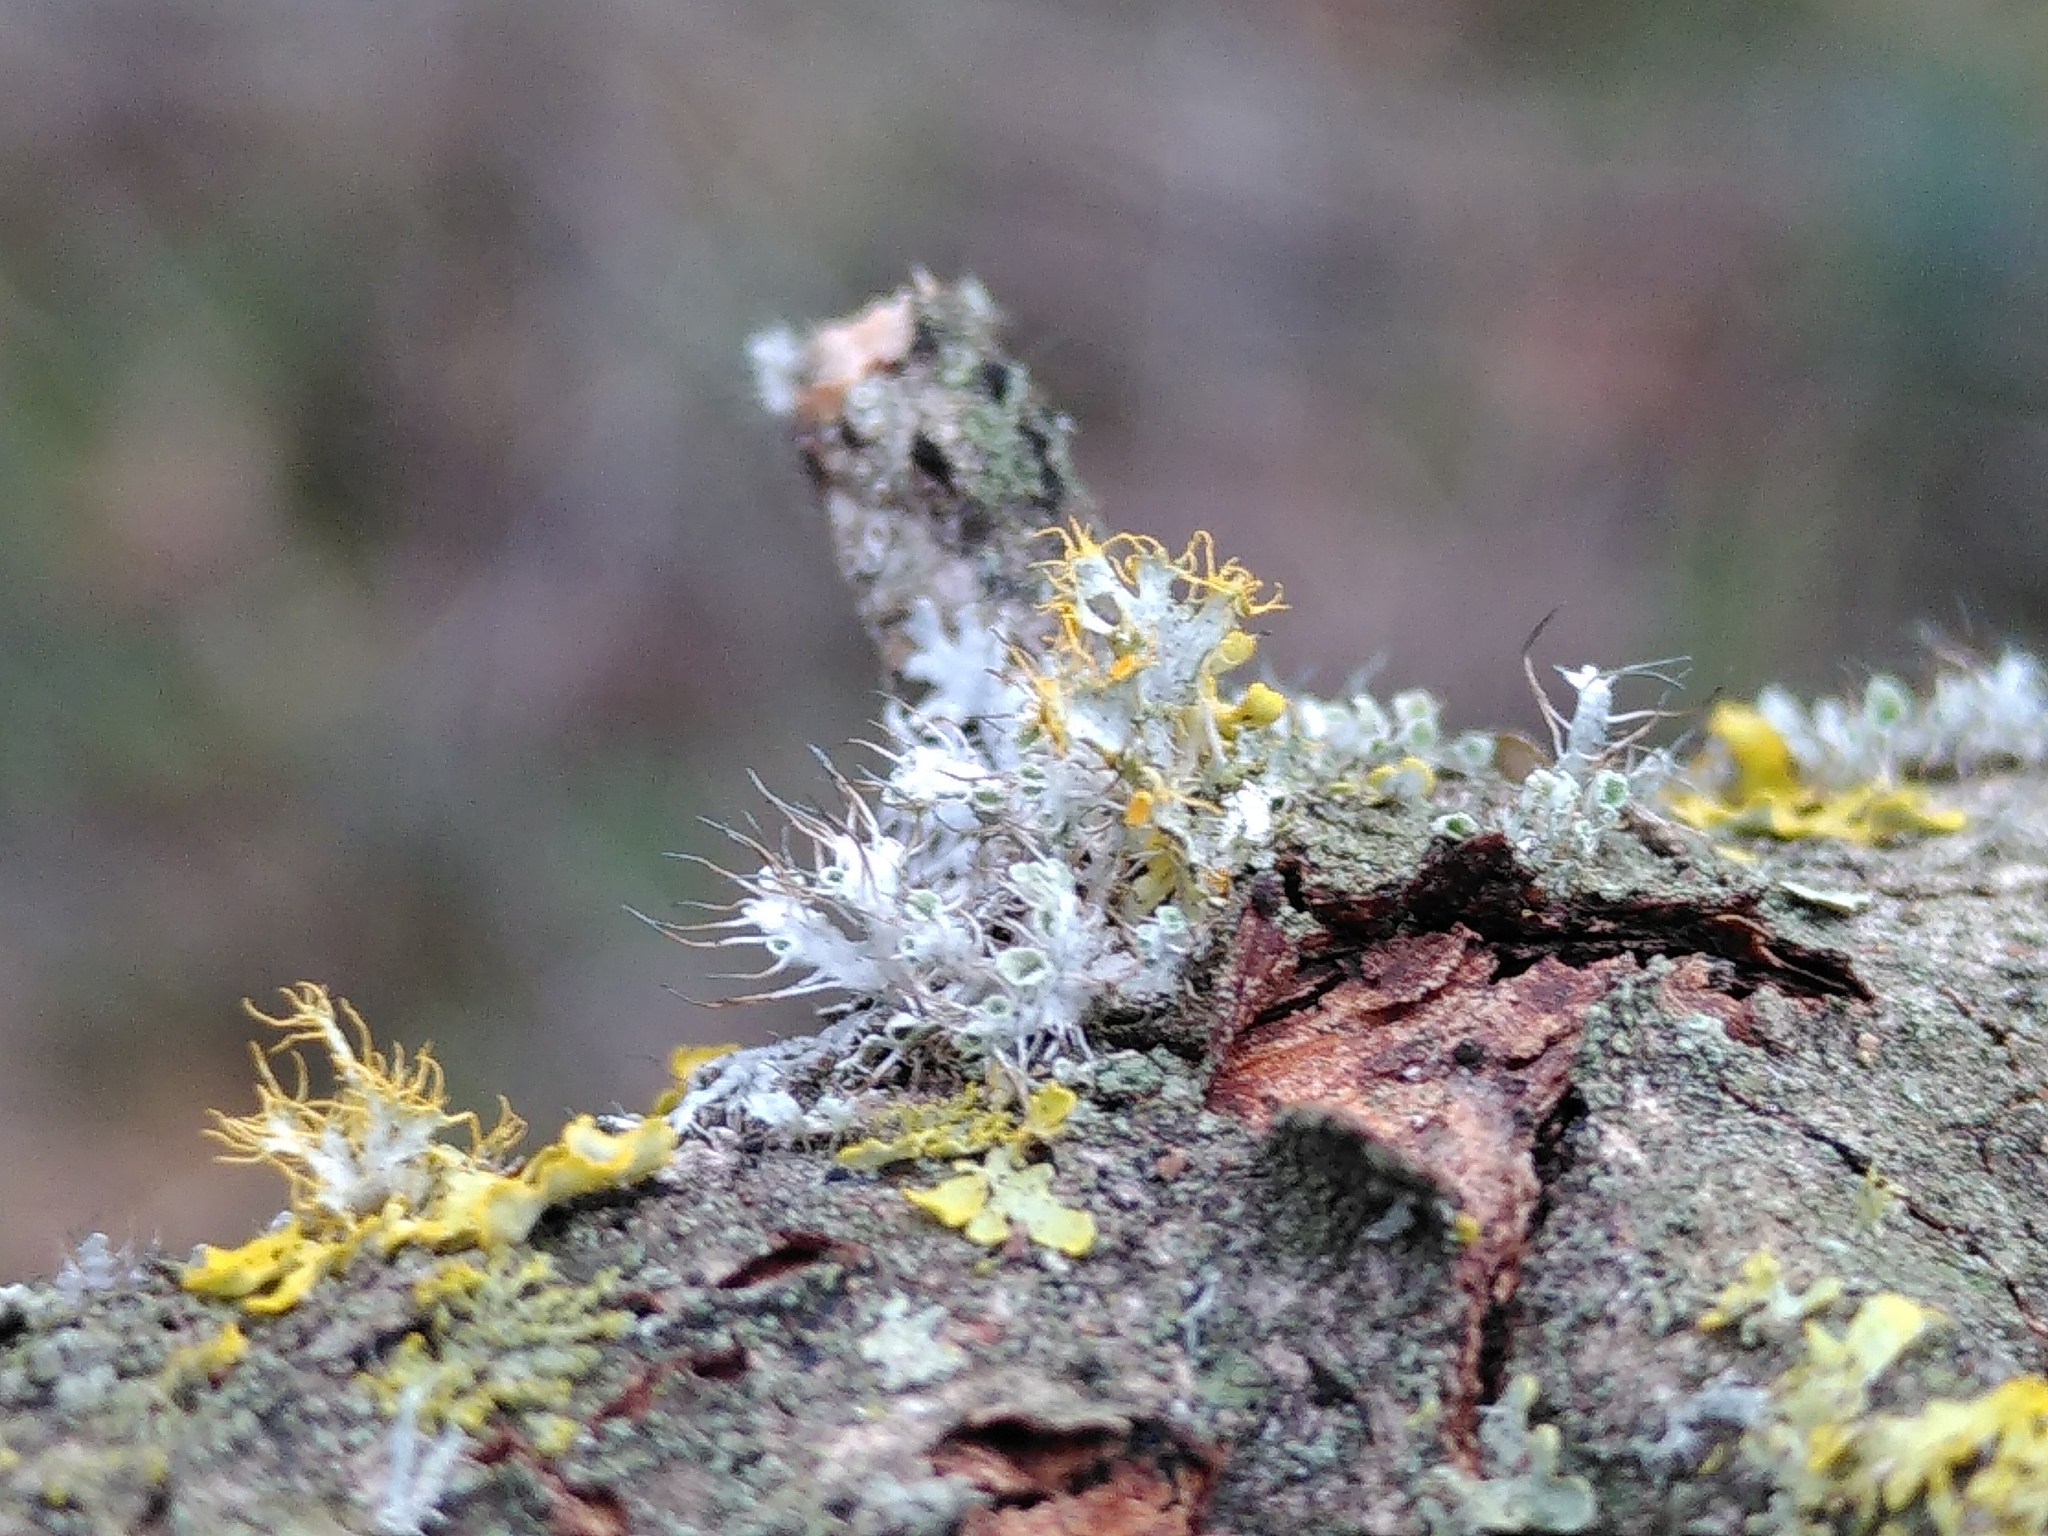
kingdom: Fungi
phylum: Ascomycota
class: Lecanoromycetes
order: Teloschistales
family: Teloschistaceae
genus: Niorma
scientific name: Niorma chrysophthalma
